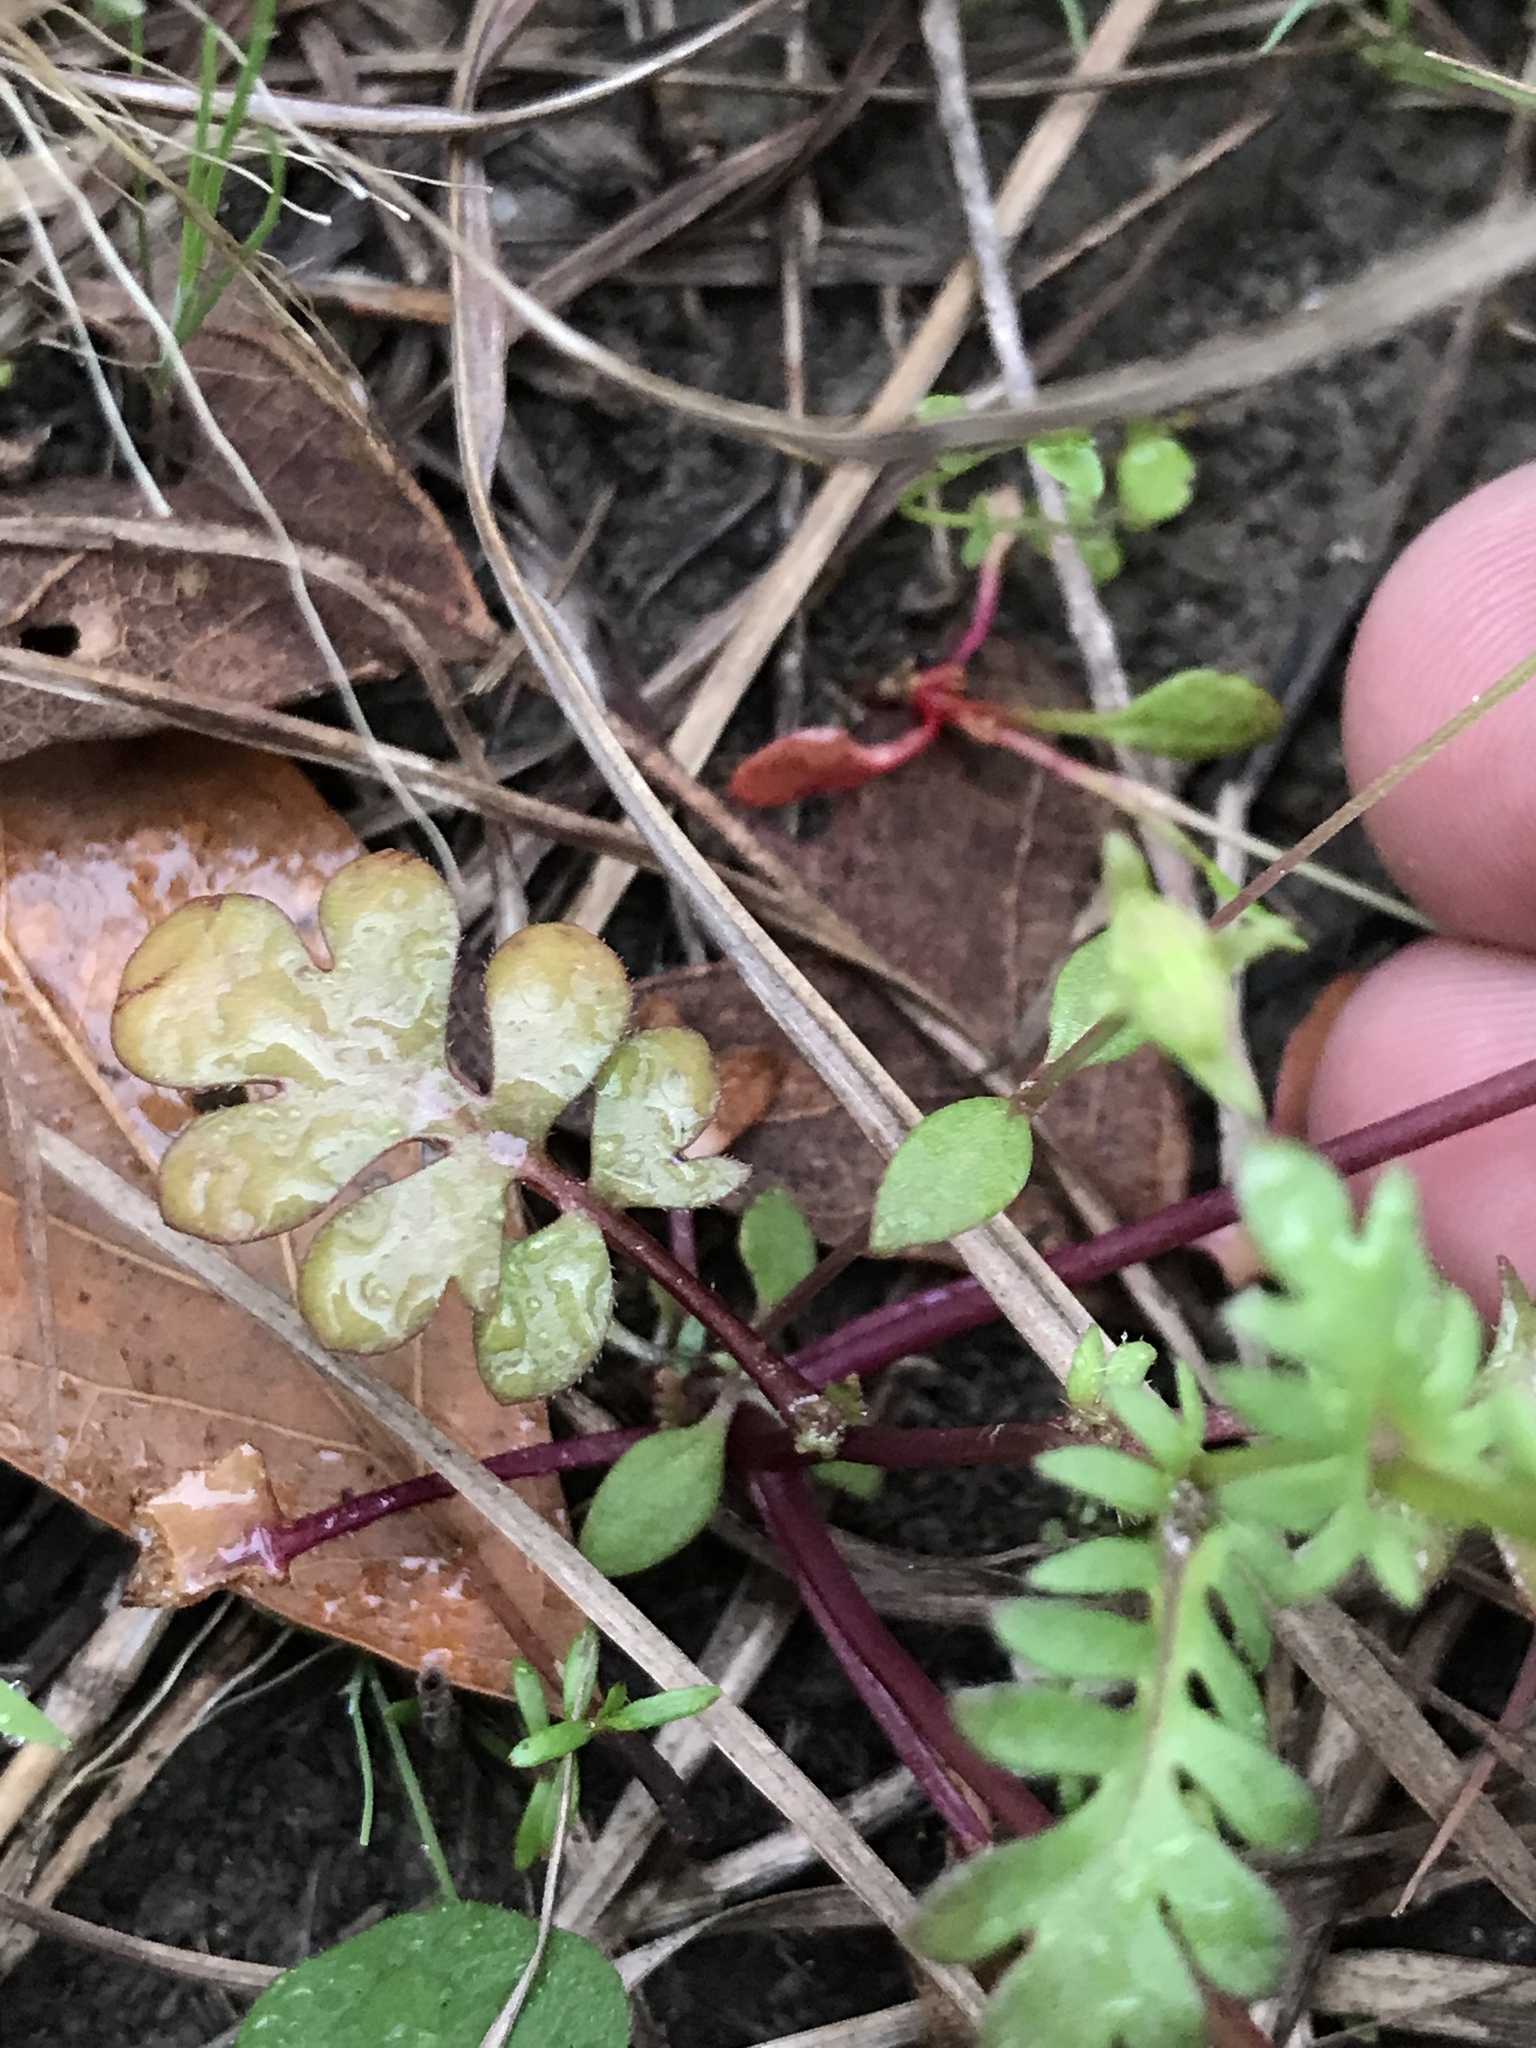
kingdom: Plantae
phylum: Tracheophyta
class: Magnoliopsida
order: Boraginales
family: Hydrophyllaceae
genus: Nemophila
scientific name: Nemophila phacelioides
